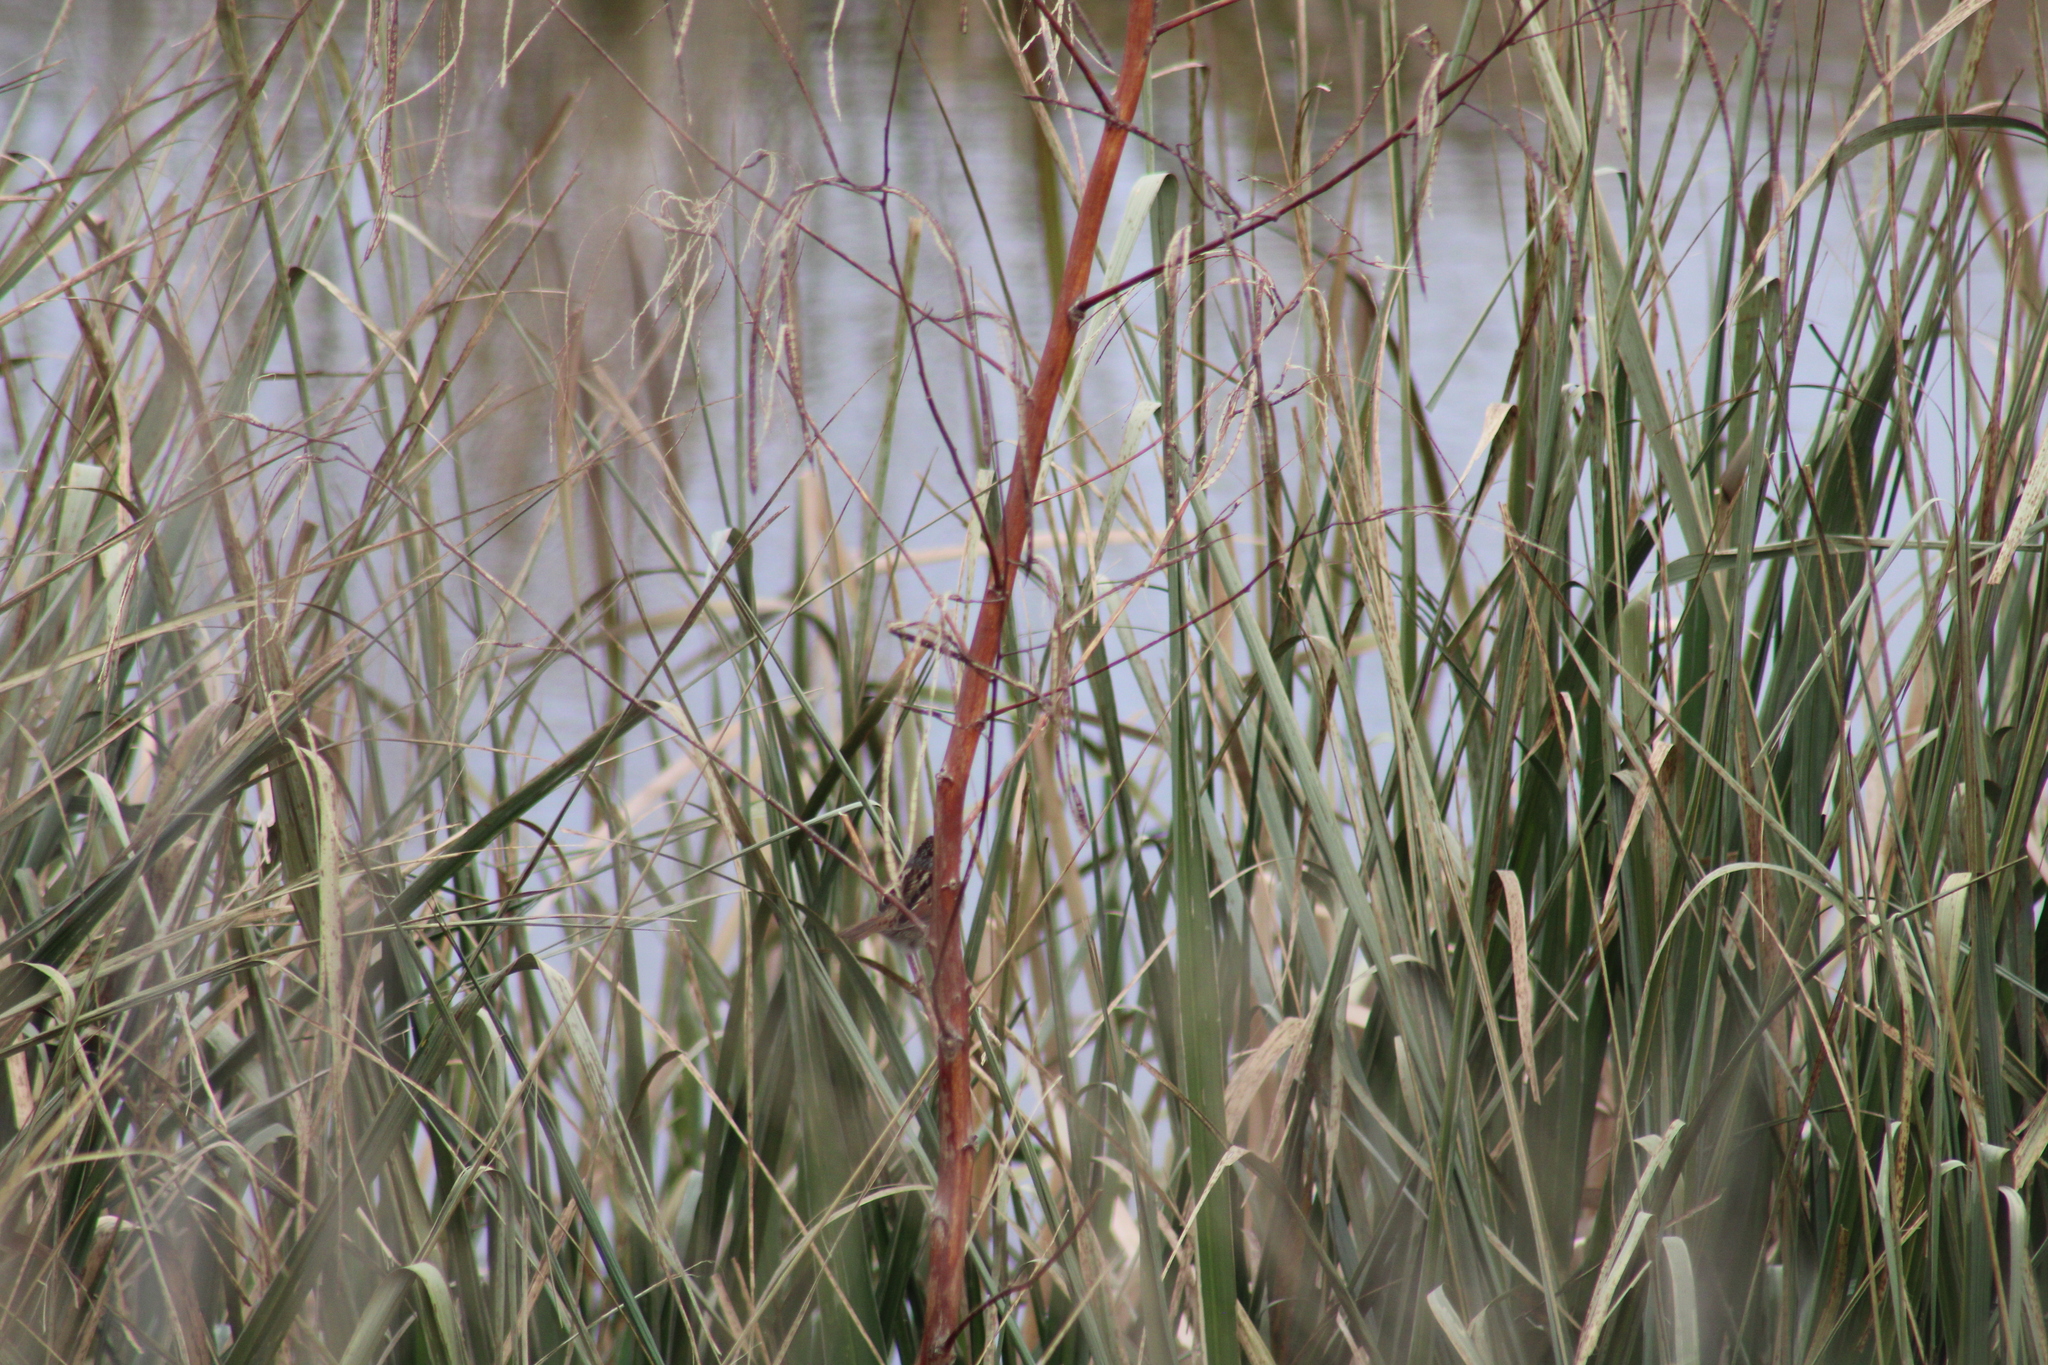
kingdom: Animalia
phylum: Chordata
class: Aves
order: Passeriformes
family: Passerellidae
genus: Melospiza
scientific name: Melospiza georgiana
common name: Swamp sparrow
